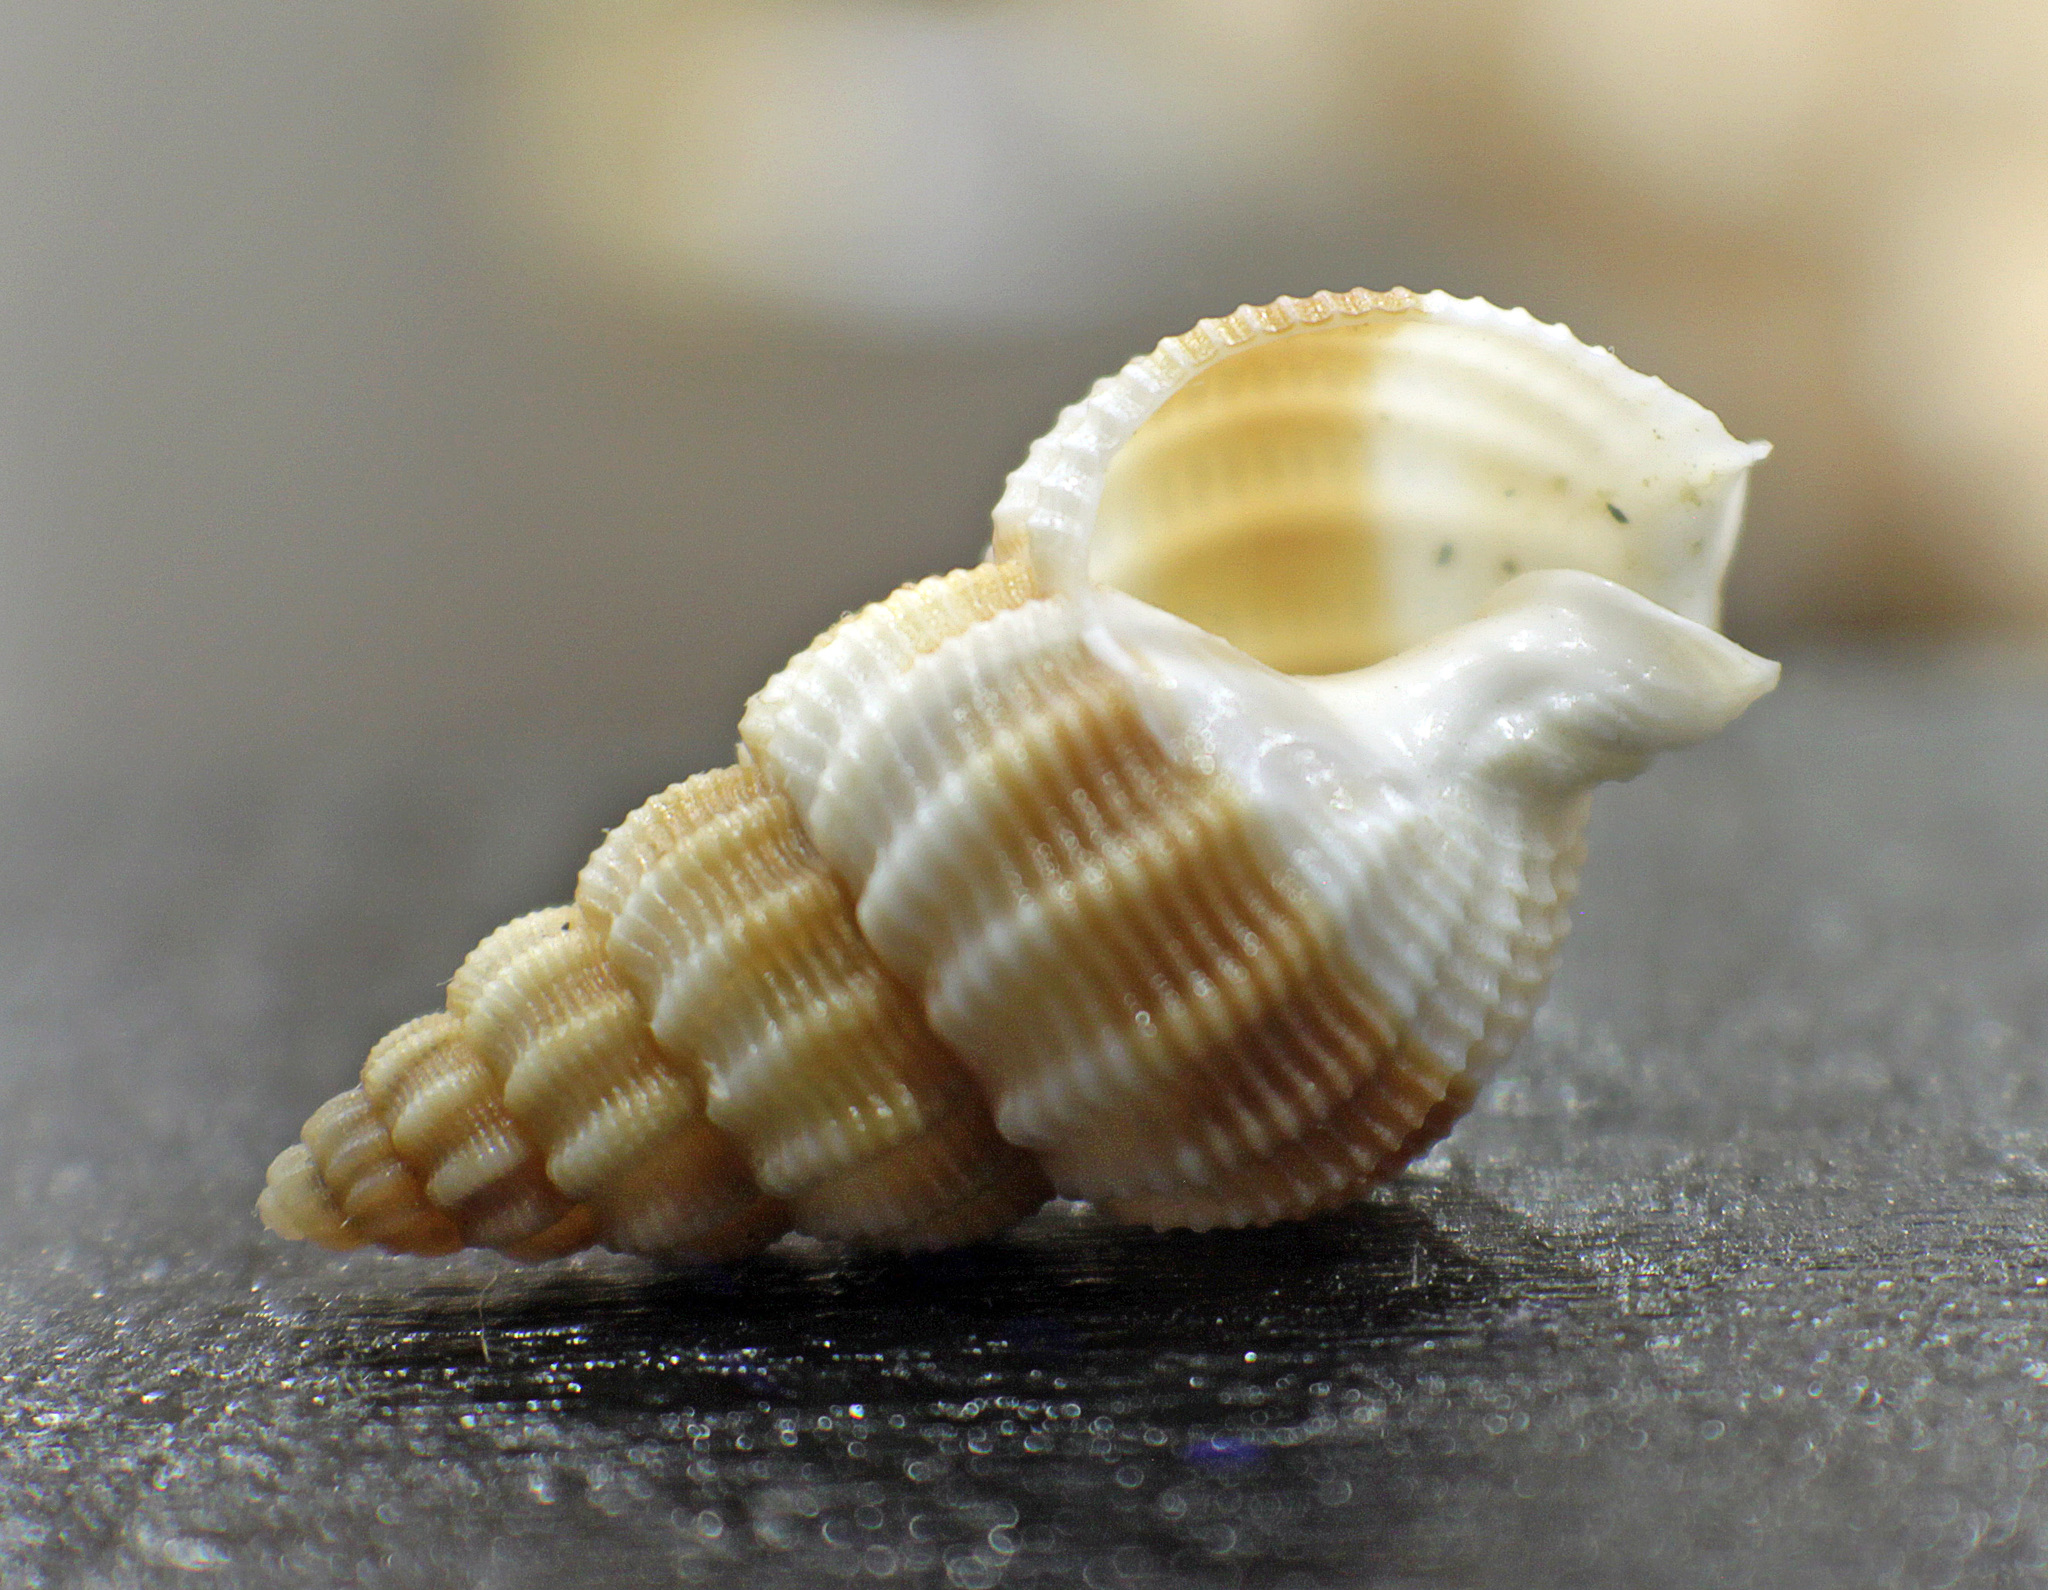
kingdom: Animalia
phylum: Mollusca
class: Gastropoda
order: Neogastropoda
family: Nassariidae
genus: Tritia
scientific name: Tritia lima
